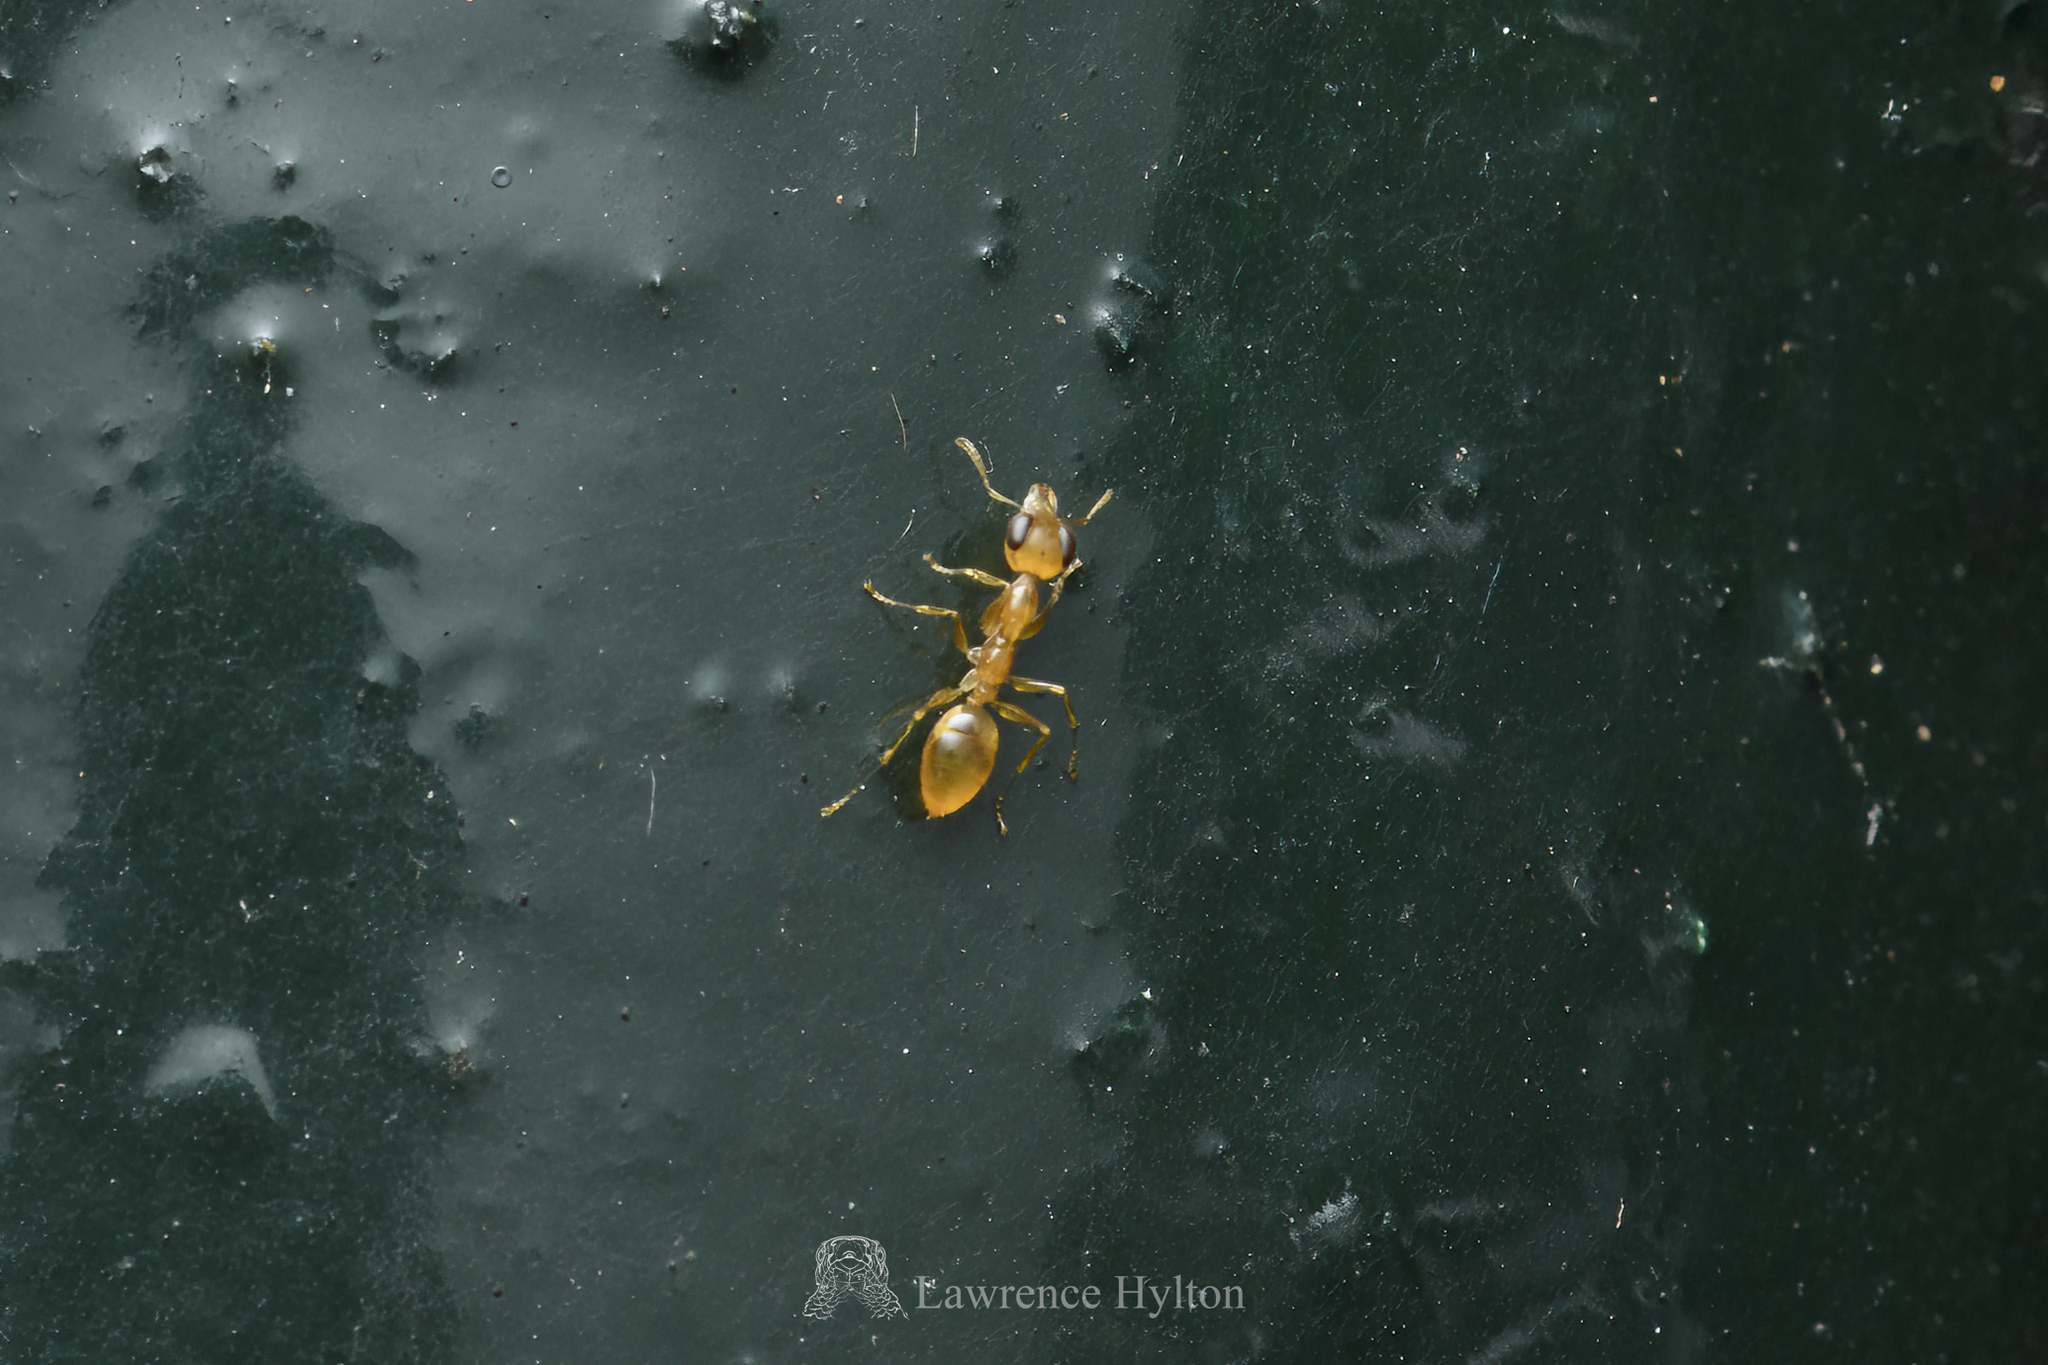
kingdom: Animalia
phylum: Arthropoda
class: Insecta
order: Hymenoptera
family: Formicidae
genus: Gesomyrmex
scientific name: Gesomyrmex howardi
